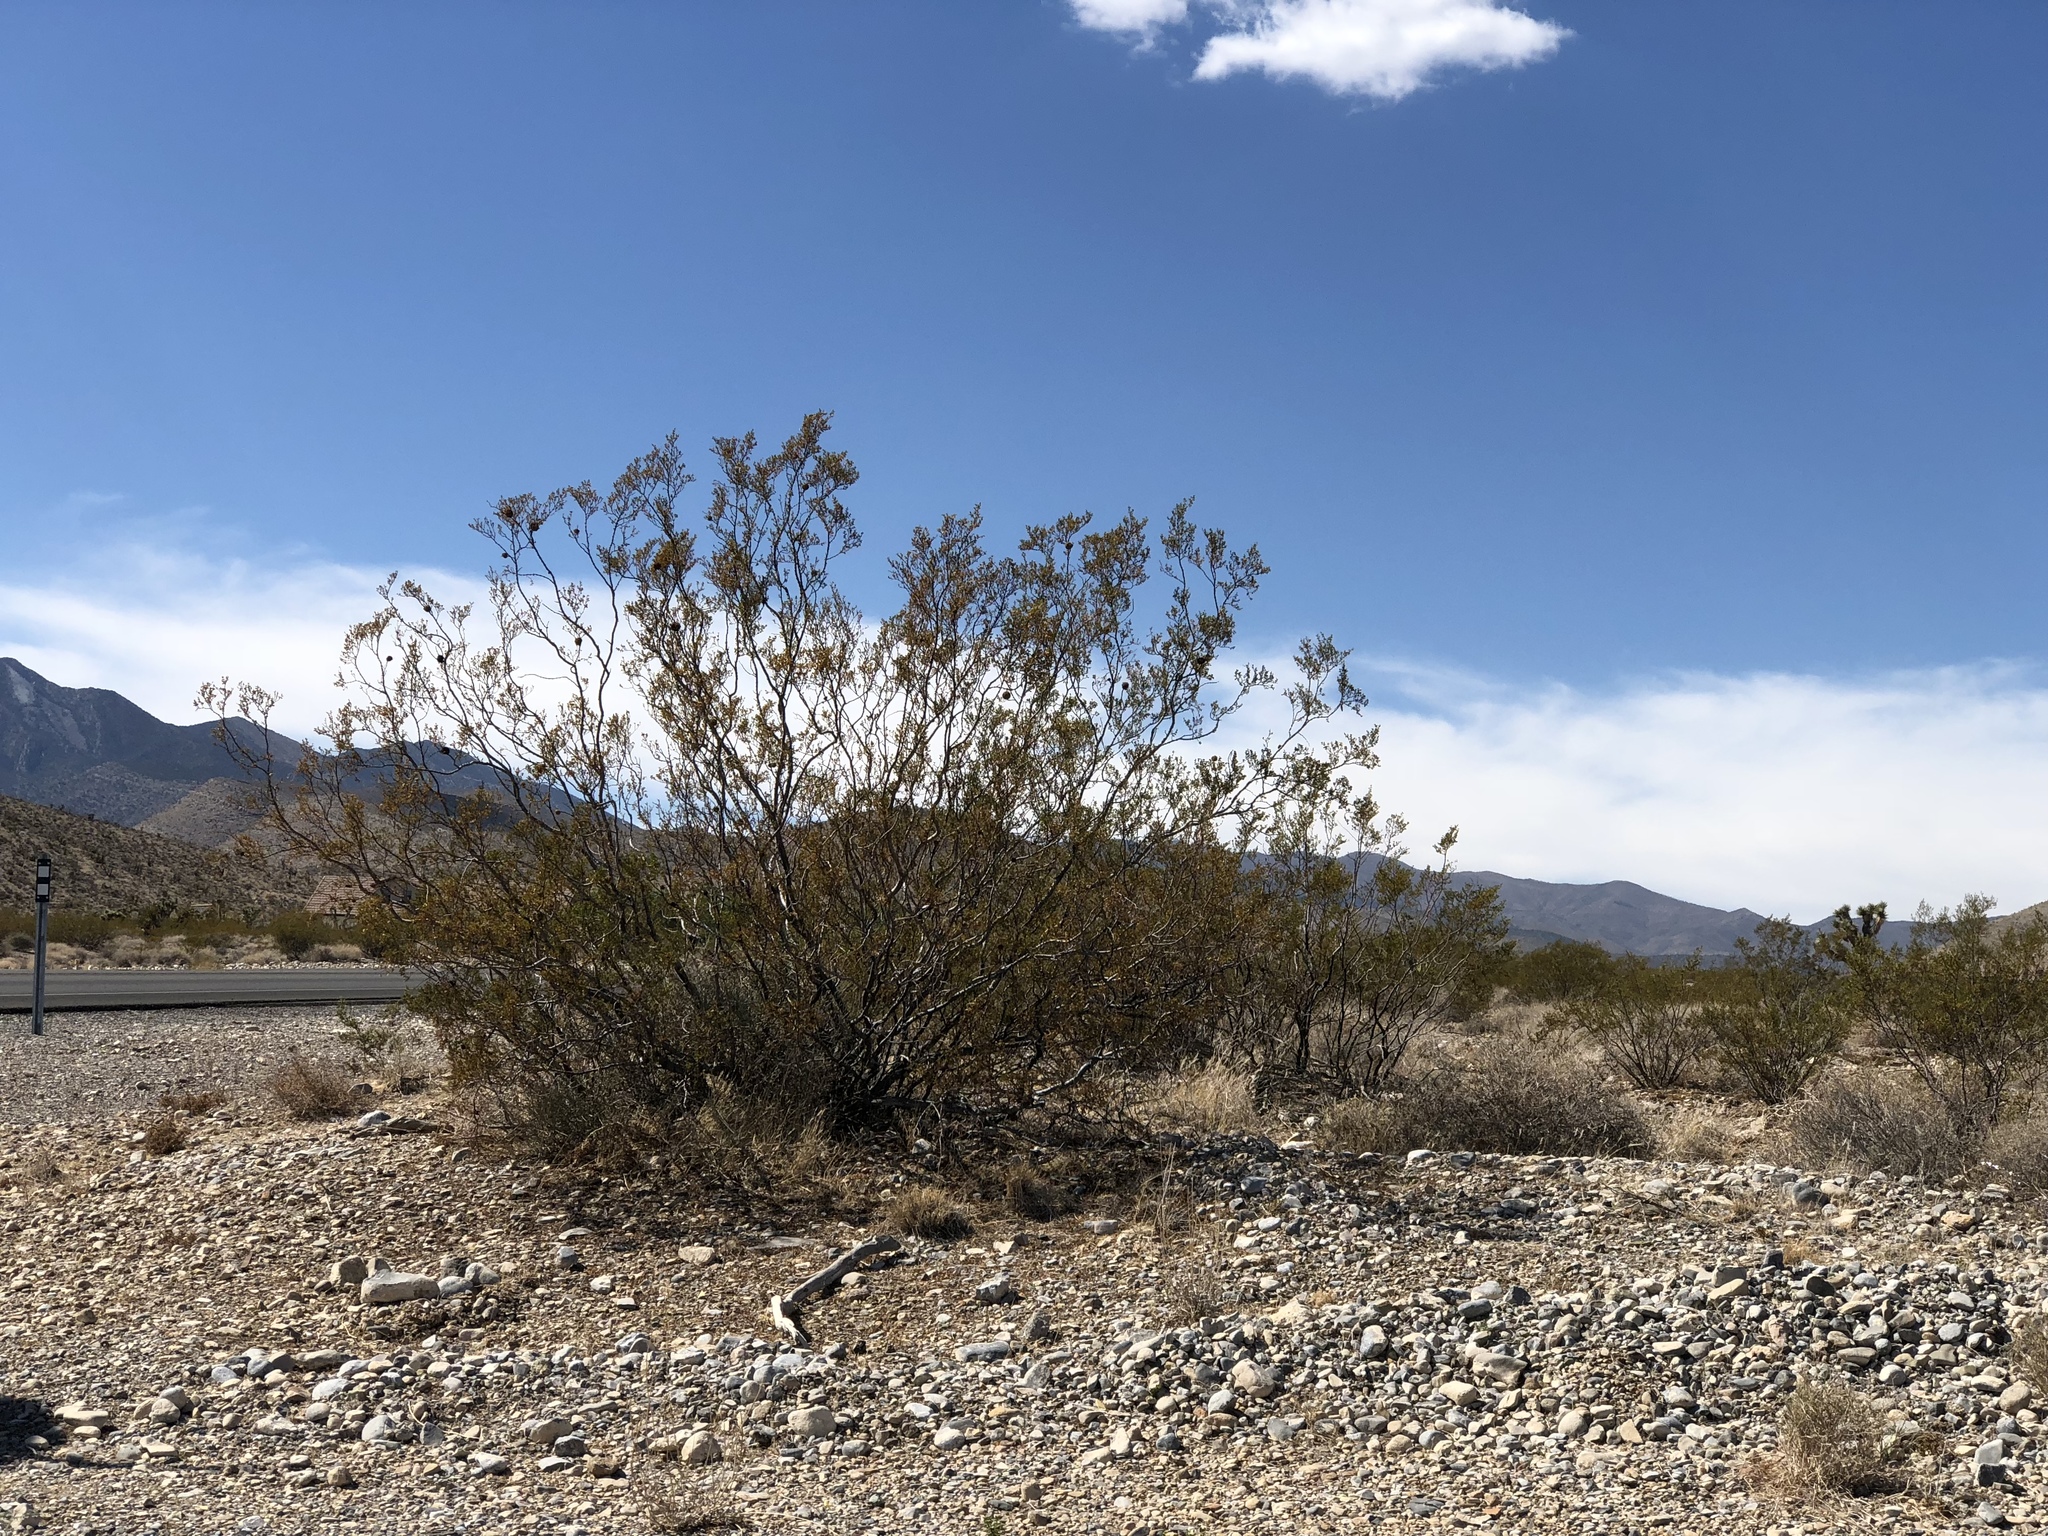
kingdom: Plantae
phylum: Tracheophyta
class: Magnoliopsida
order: Zygophyllales
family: Zygophyllaceae
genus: Larrea
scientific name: Larrea tridentata
